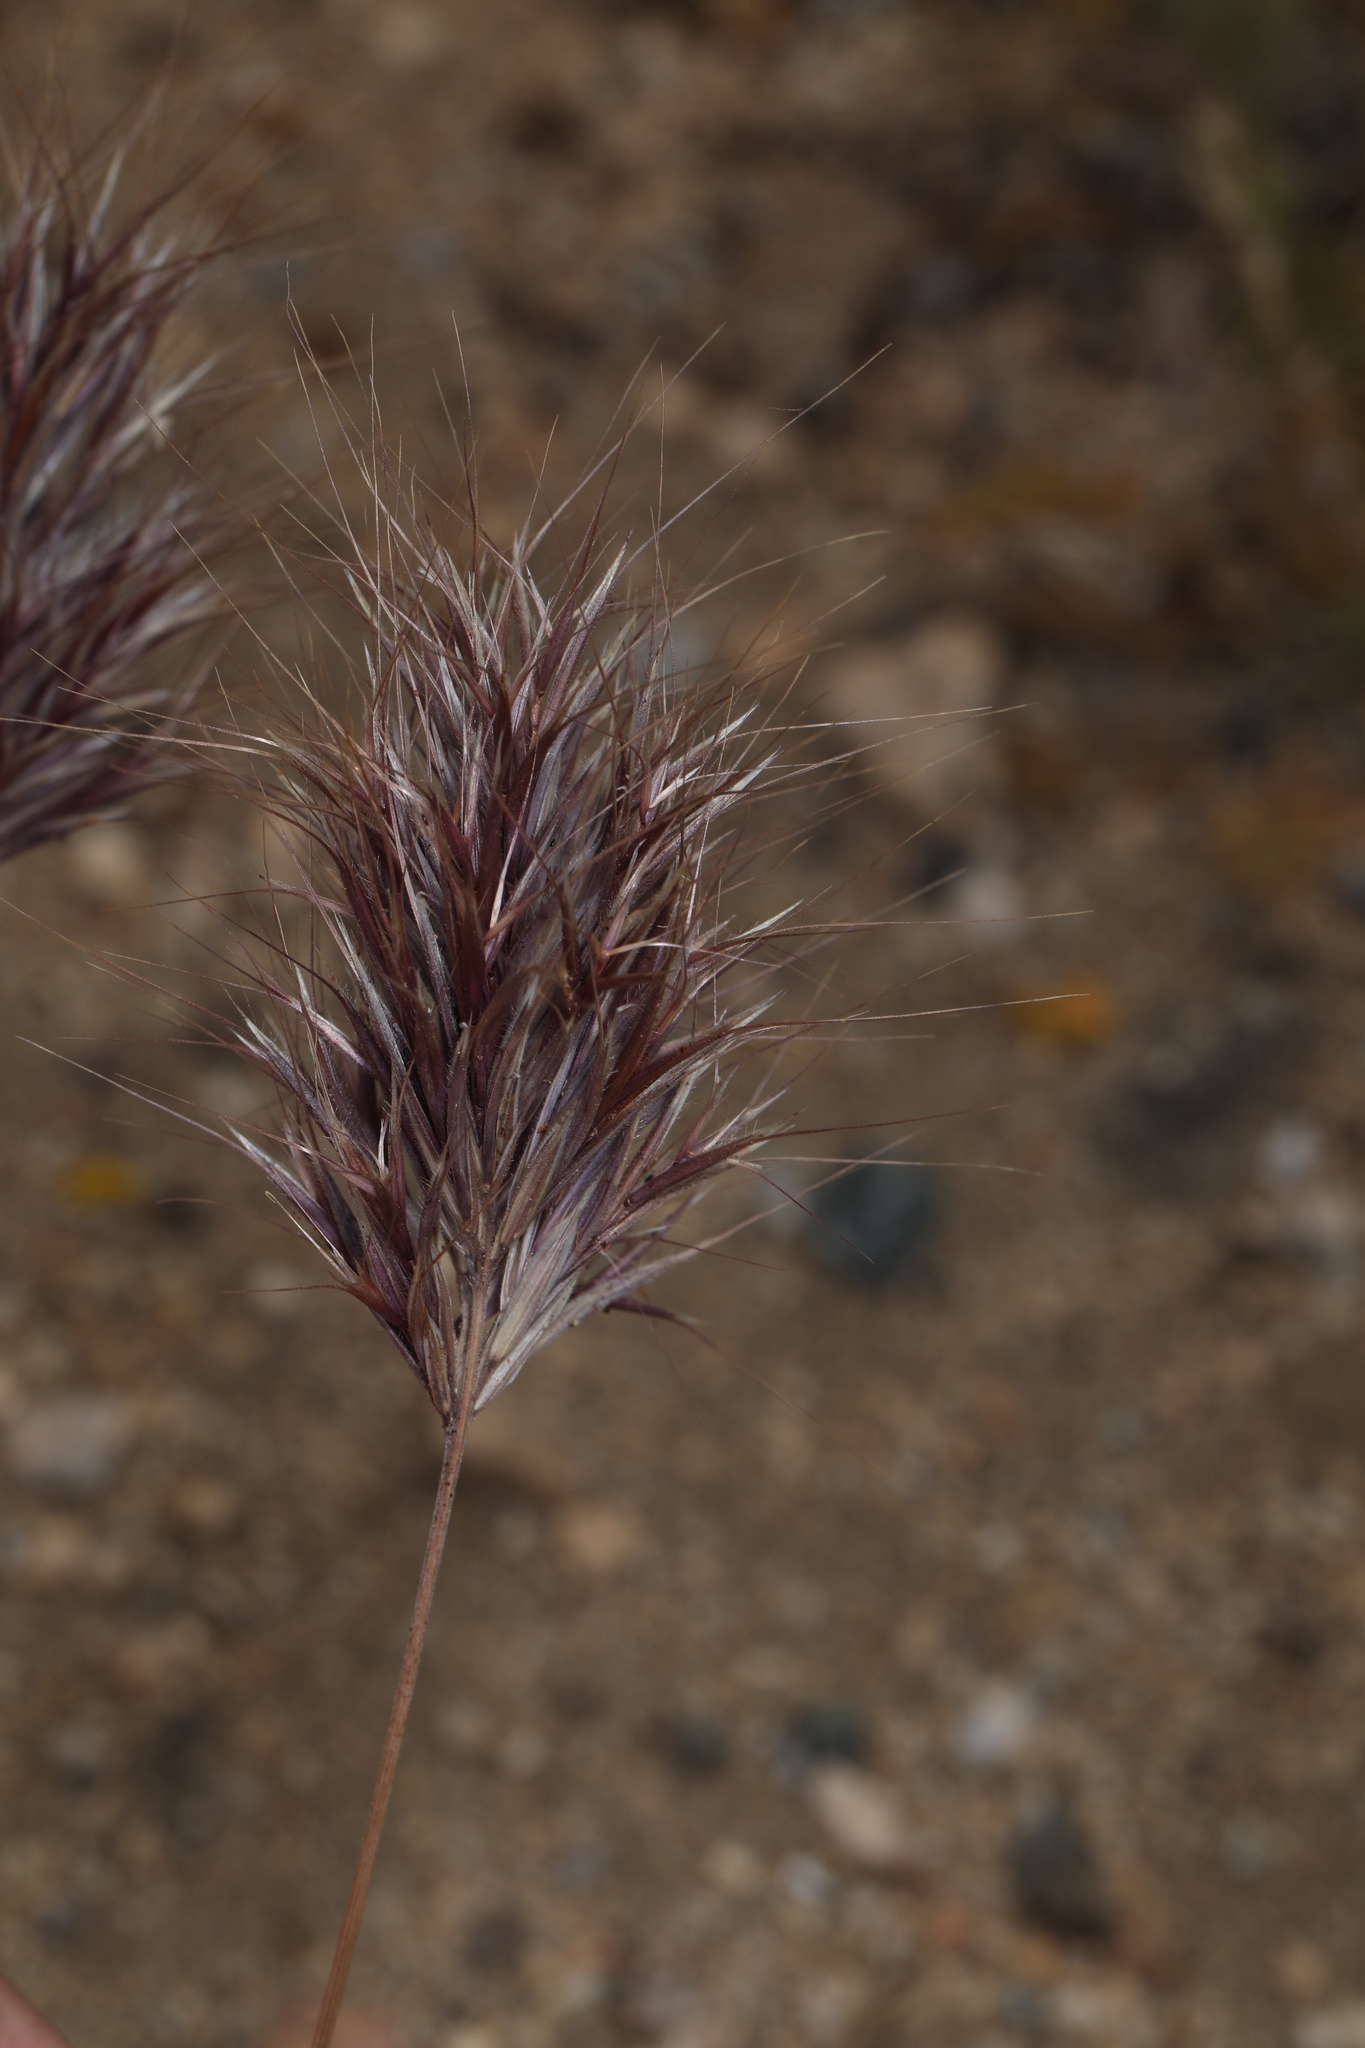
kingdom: Plantae
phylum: Tracheophyta
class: Liliopsida
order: Poales
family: Poaceae
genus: Bromus
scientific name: Bromus rubens
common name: Red brome
